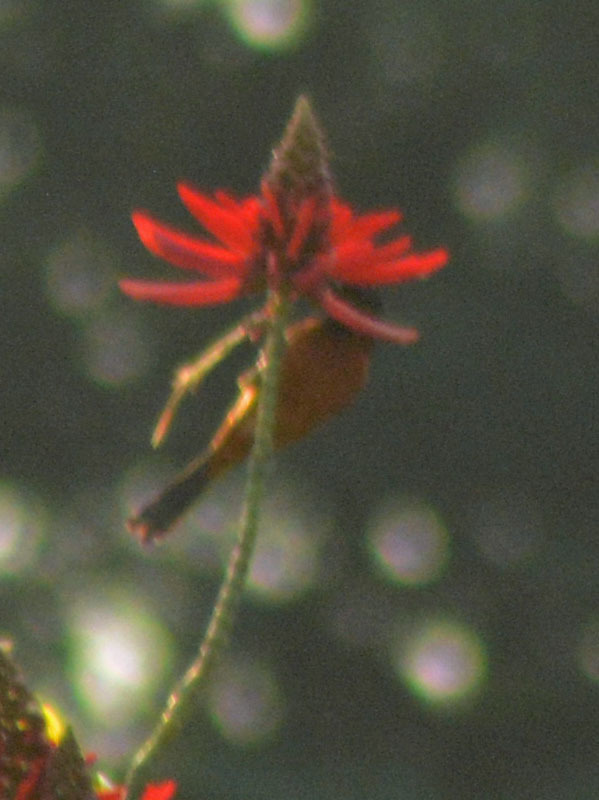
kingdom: Animalia
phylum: Chordata
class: Aves
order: Passeriformes
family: Icteridae
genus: Icterus
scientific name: Icterus spurius
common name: Orchard oriole
